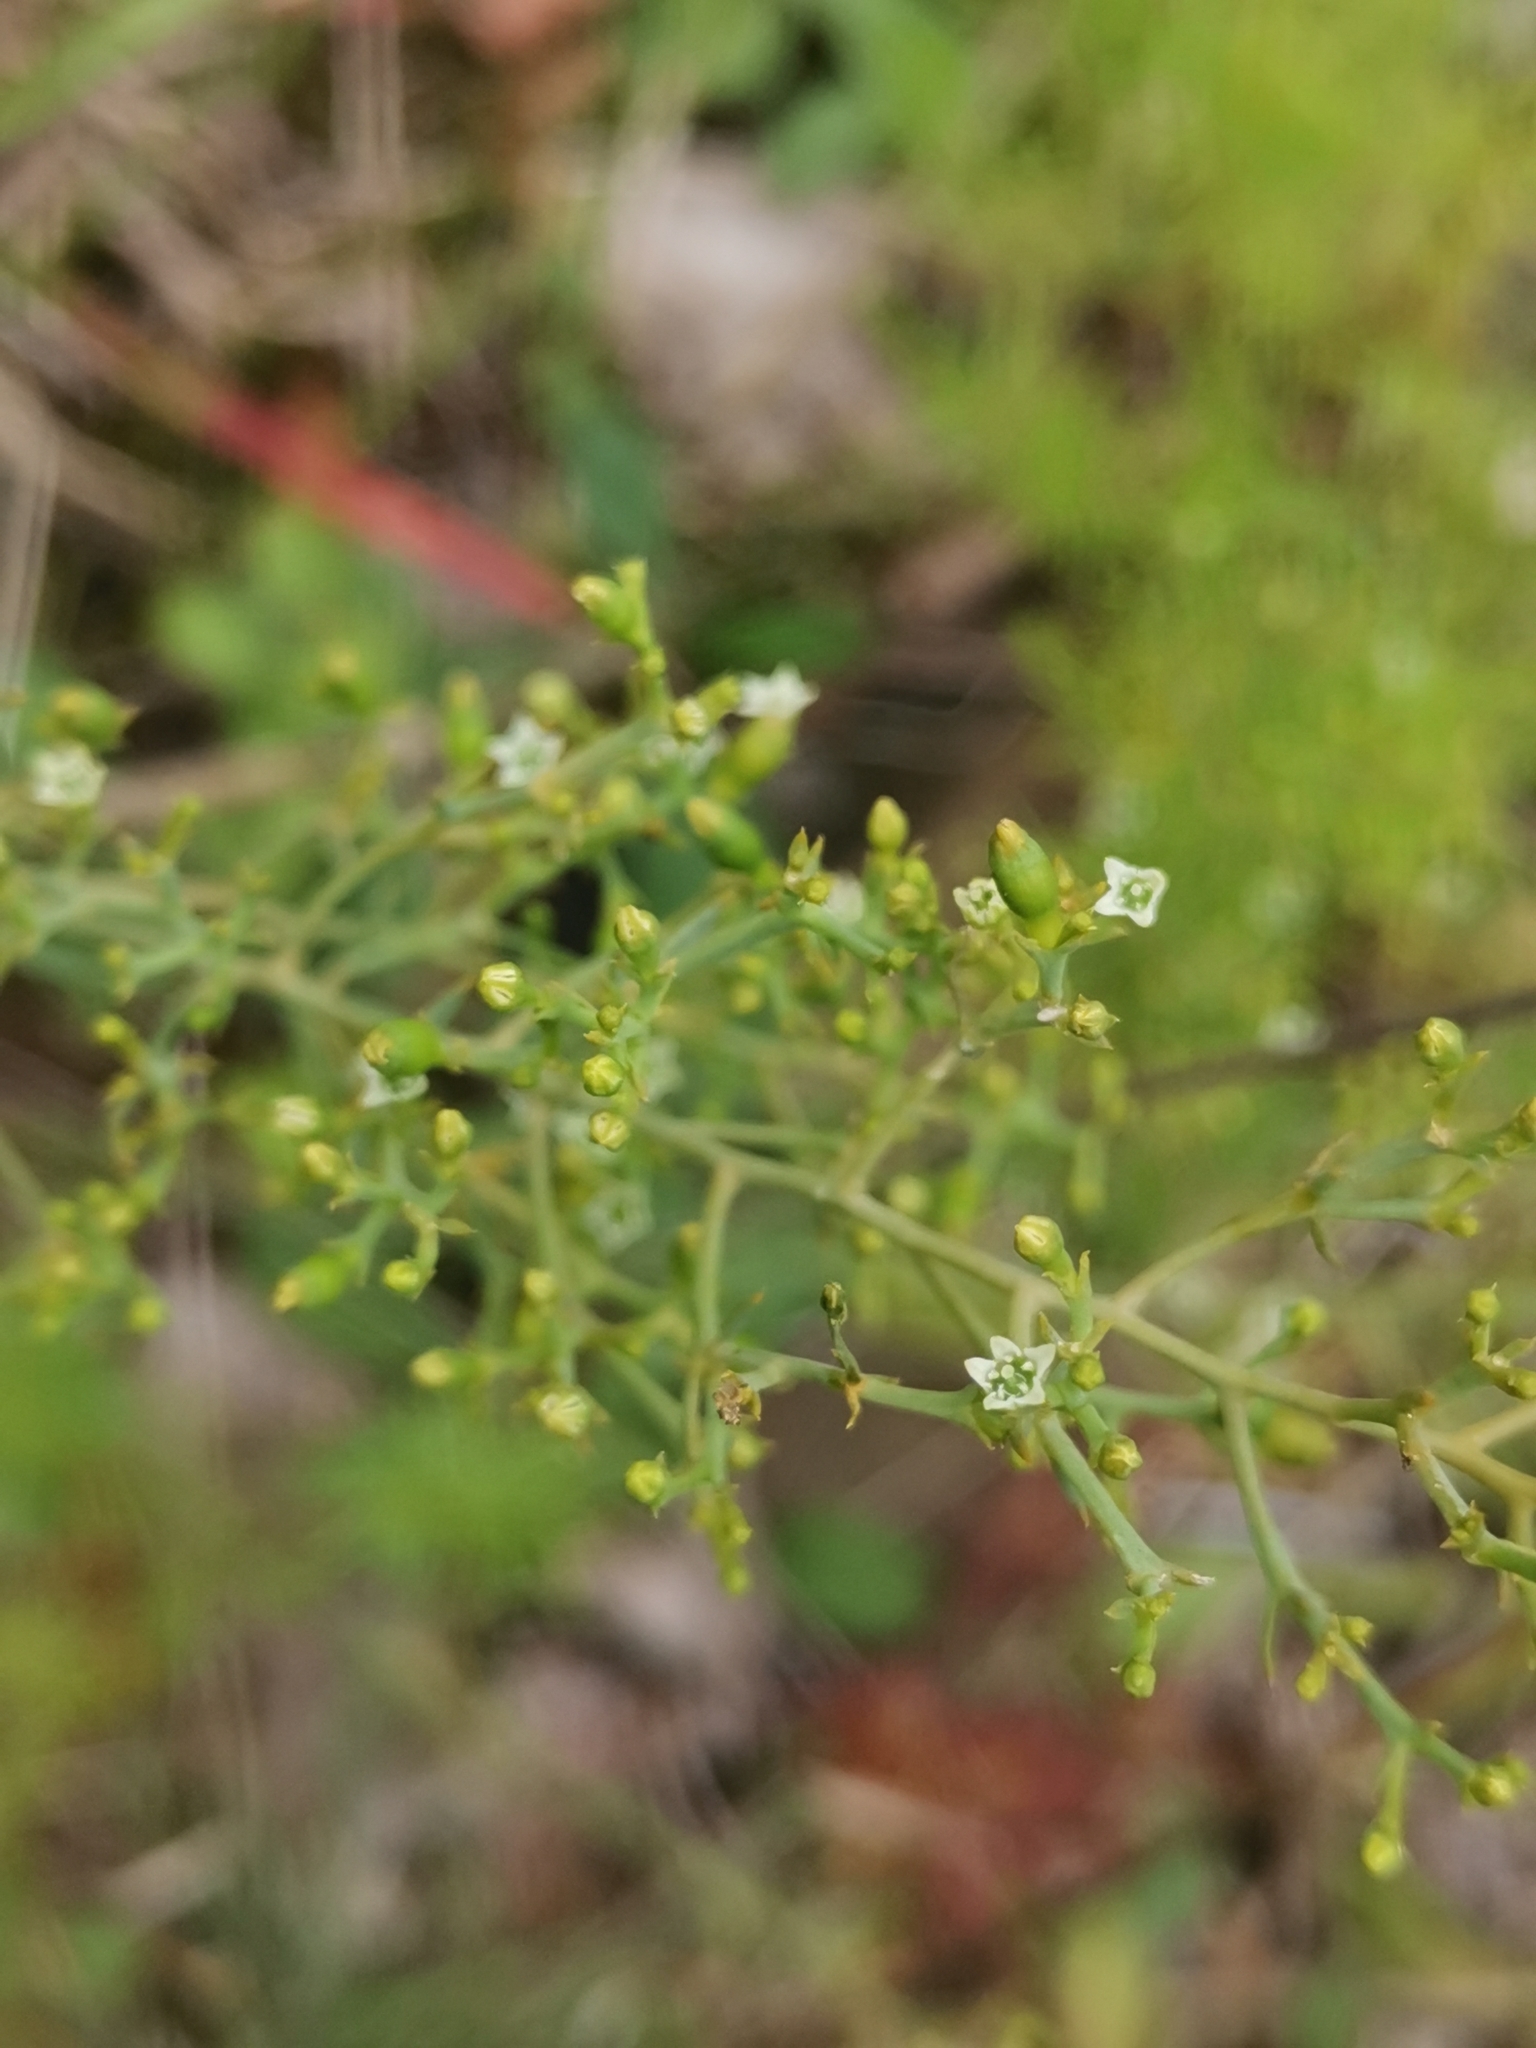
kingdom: Plantae
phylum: Tracheophyta
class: Magnoliopsida
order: Santalales
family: Thesiaceae
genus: Thesium
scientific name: Thesium divaricatum
